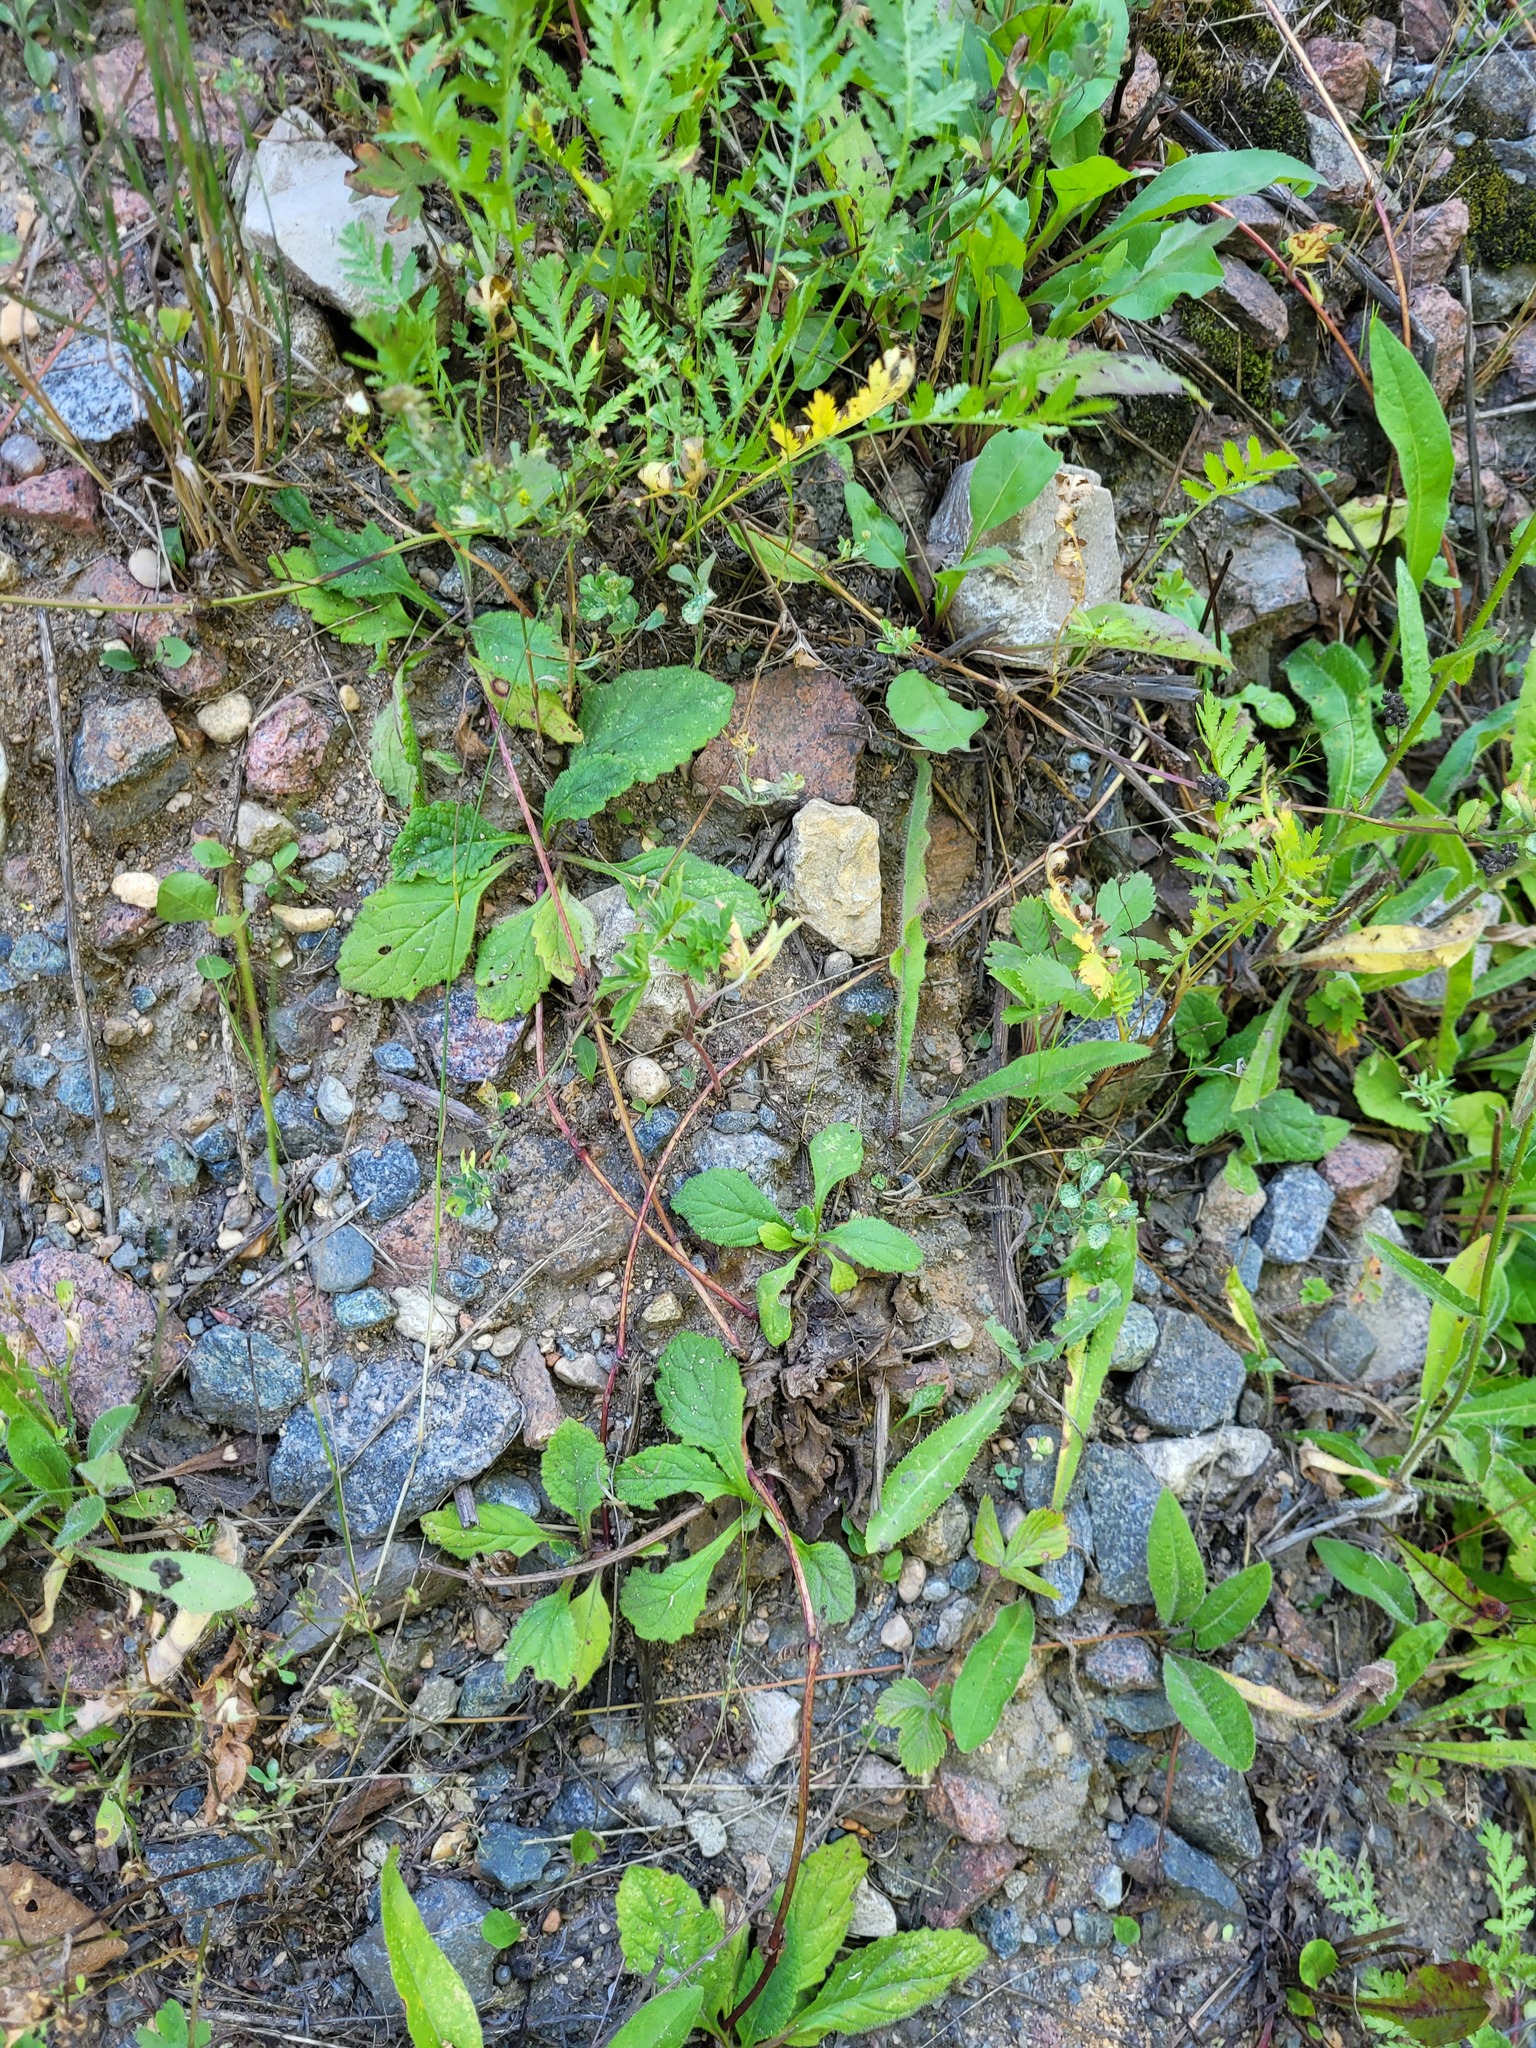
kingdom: Plantae
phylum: Tracheophyta
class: Magnoliopsida
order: Lamiales
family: Lamiaceae
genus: Ajuga
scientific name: Ajuga reptans
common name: Bugle
